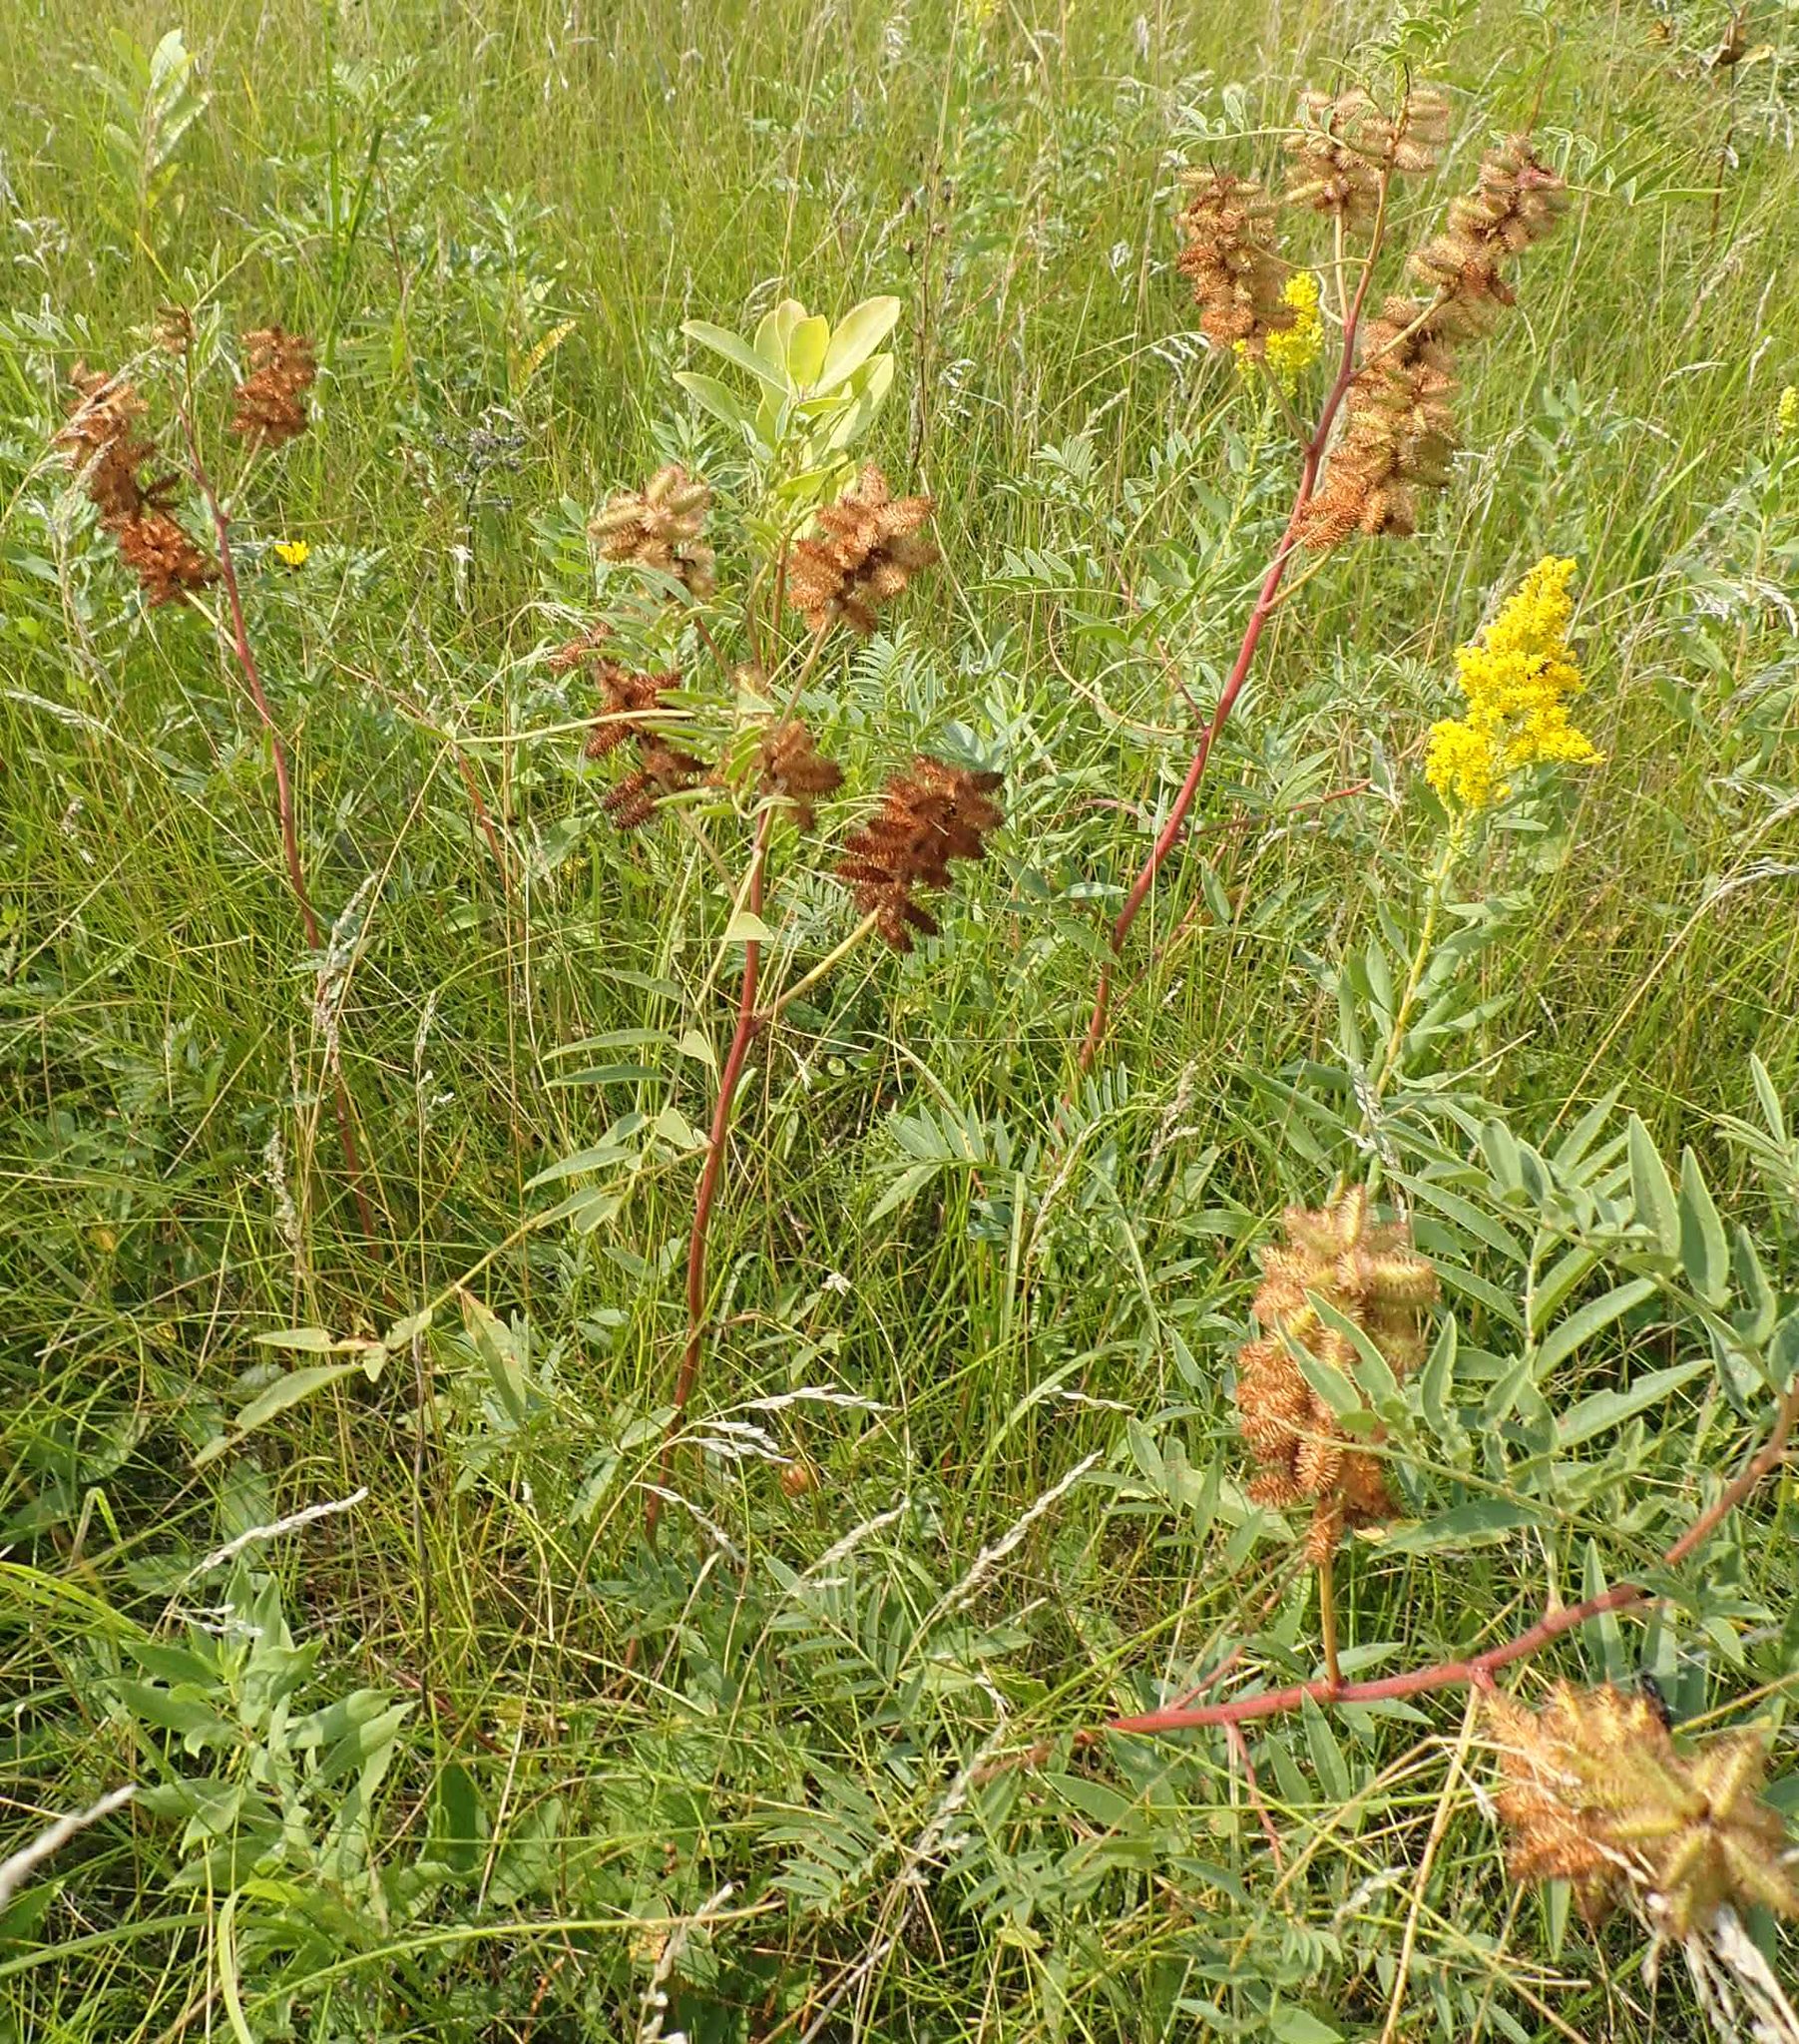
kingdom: Plantae
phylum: Tracheophyta
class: Magnoliopsida
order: Fabales
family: Fabaceae
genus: Glycyrrhiza
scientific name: Glycyrrhiza lepidota
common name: American liquorice
